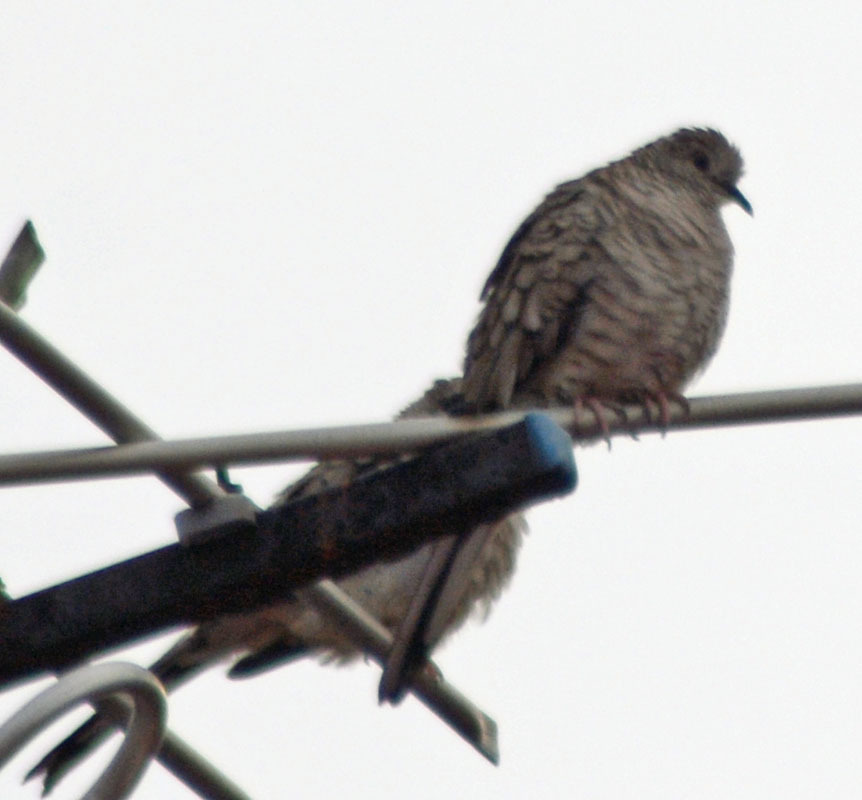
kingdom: Animalia
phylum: Chordata
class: Aves
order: Columbiformes
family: Columbidae
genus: Columbina
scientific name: Columbina inca
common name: Inca dove
